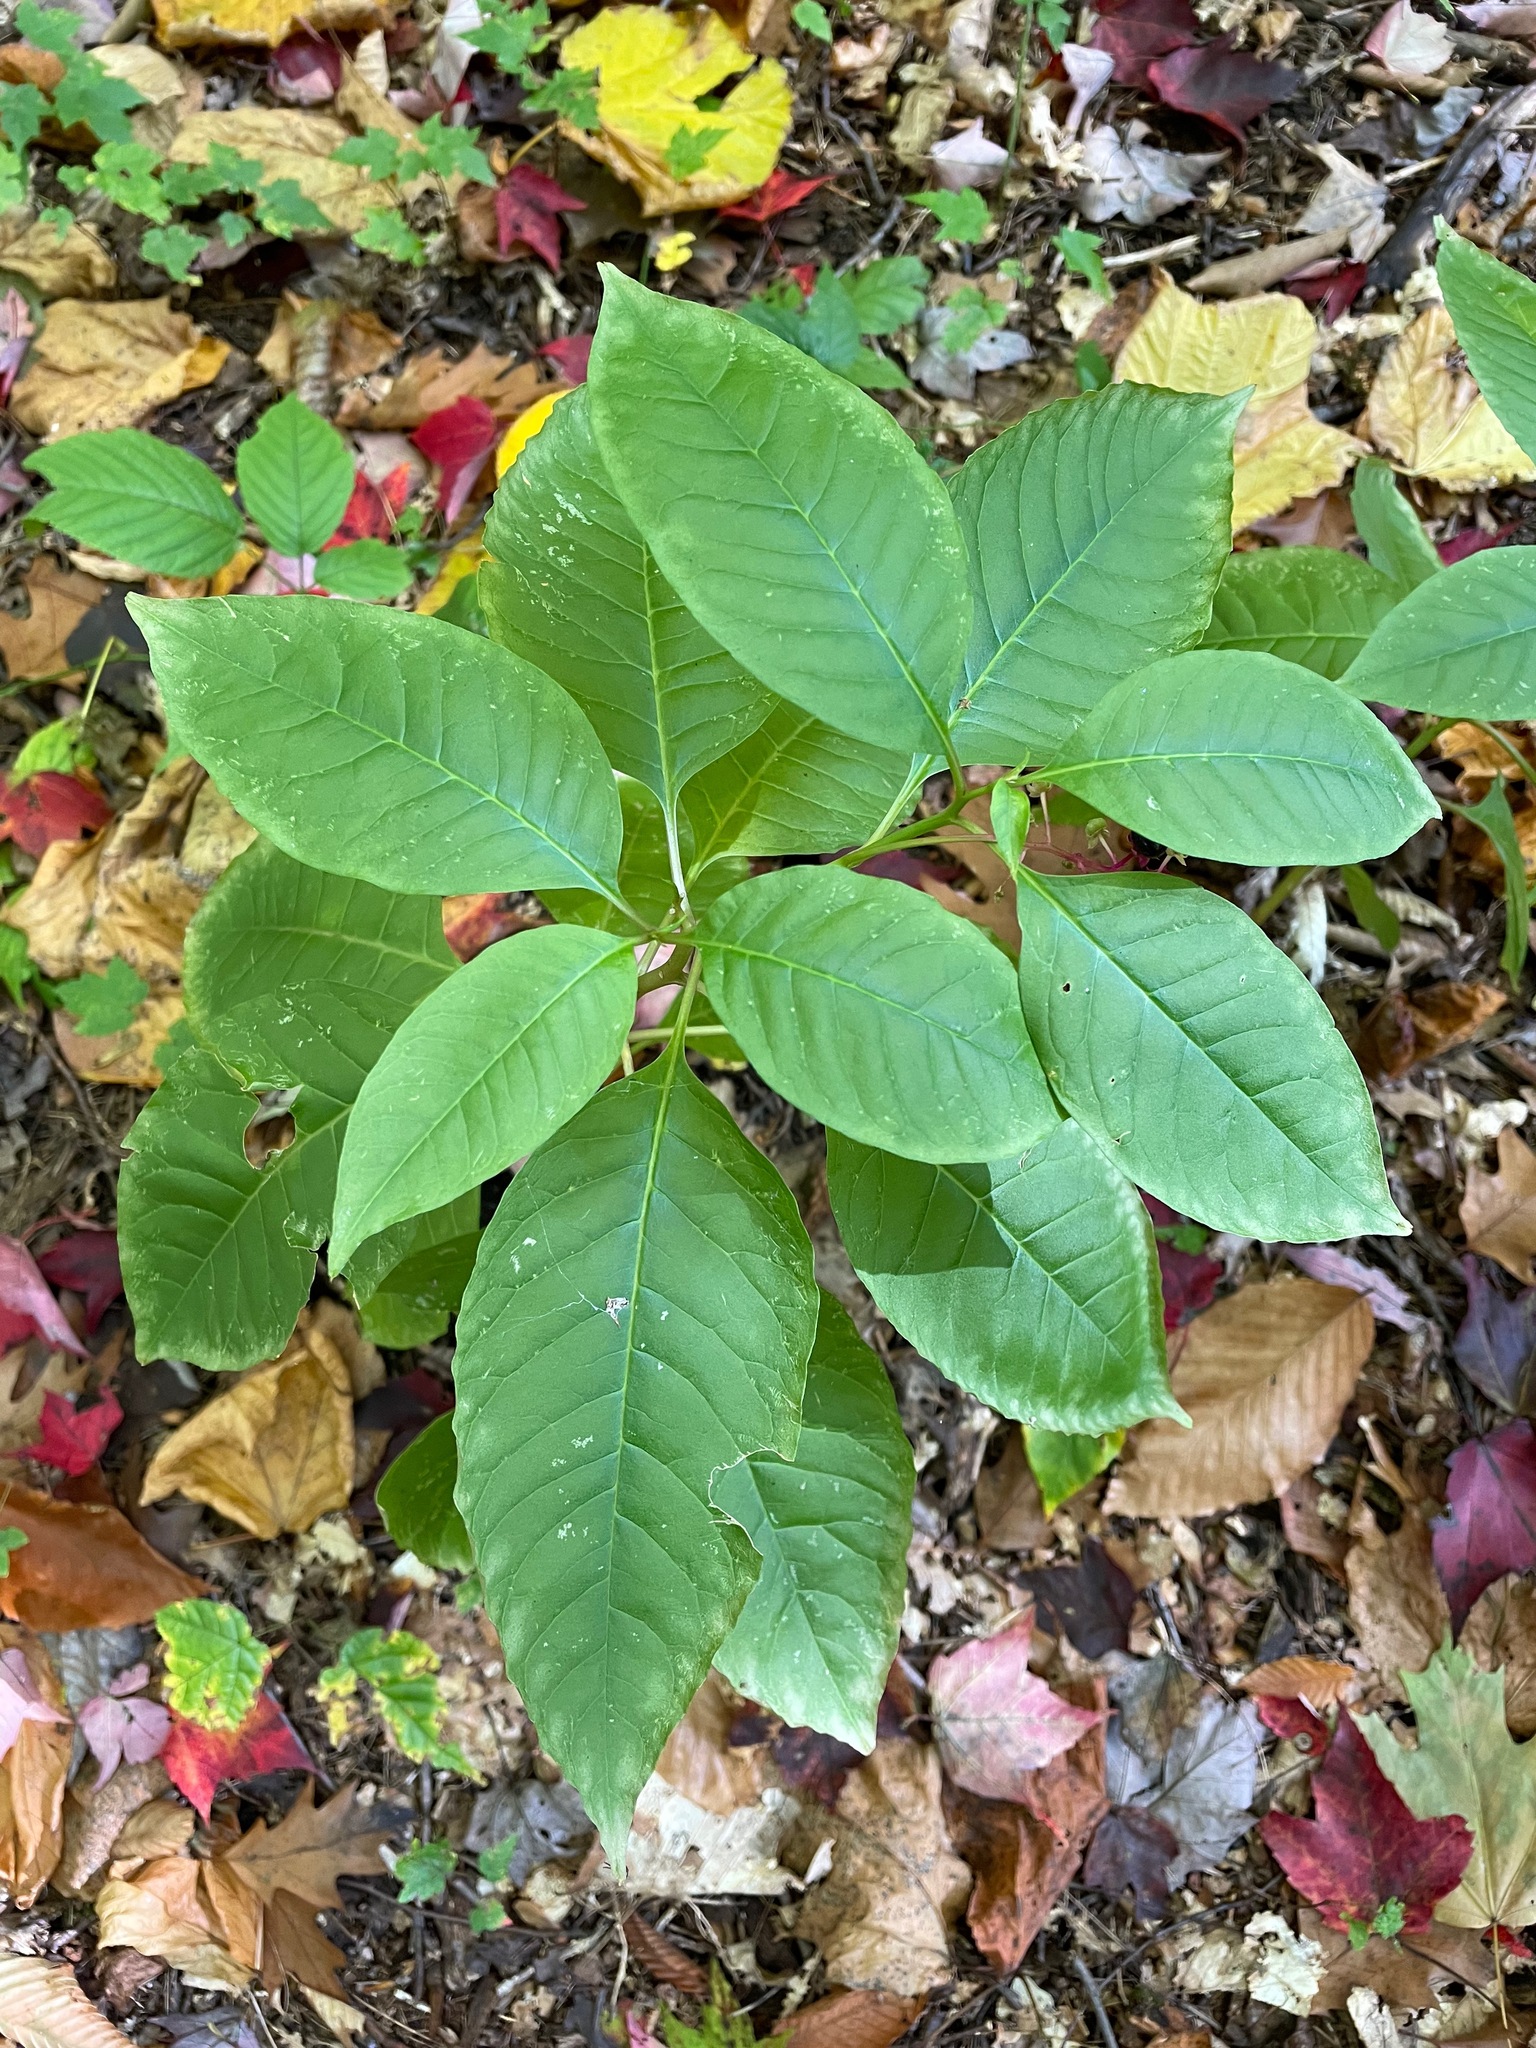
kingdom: Plantae
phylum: Tracheophyta
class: Magnoliopsida
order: Caryophyllales
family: Phytolaccaceae
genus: Phytolacca
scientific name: Phytolacca americana
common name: American pokeweed
